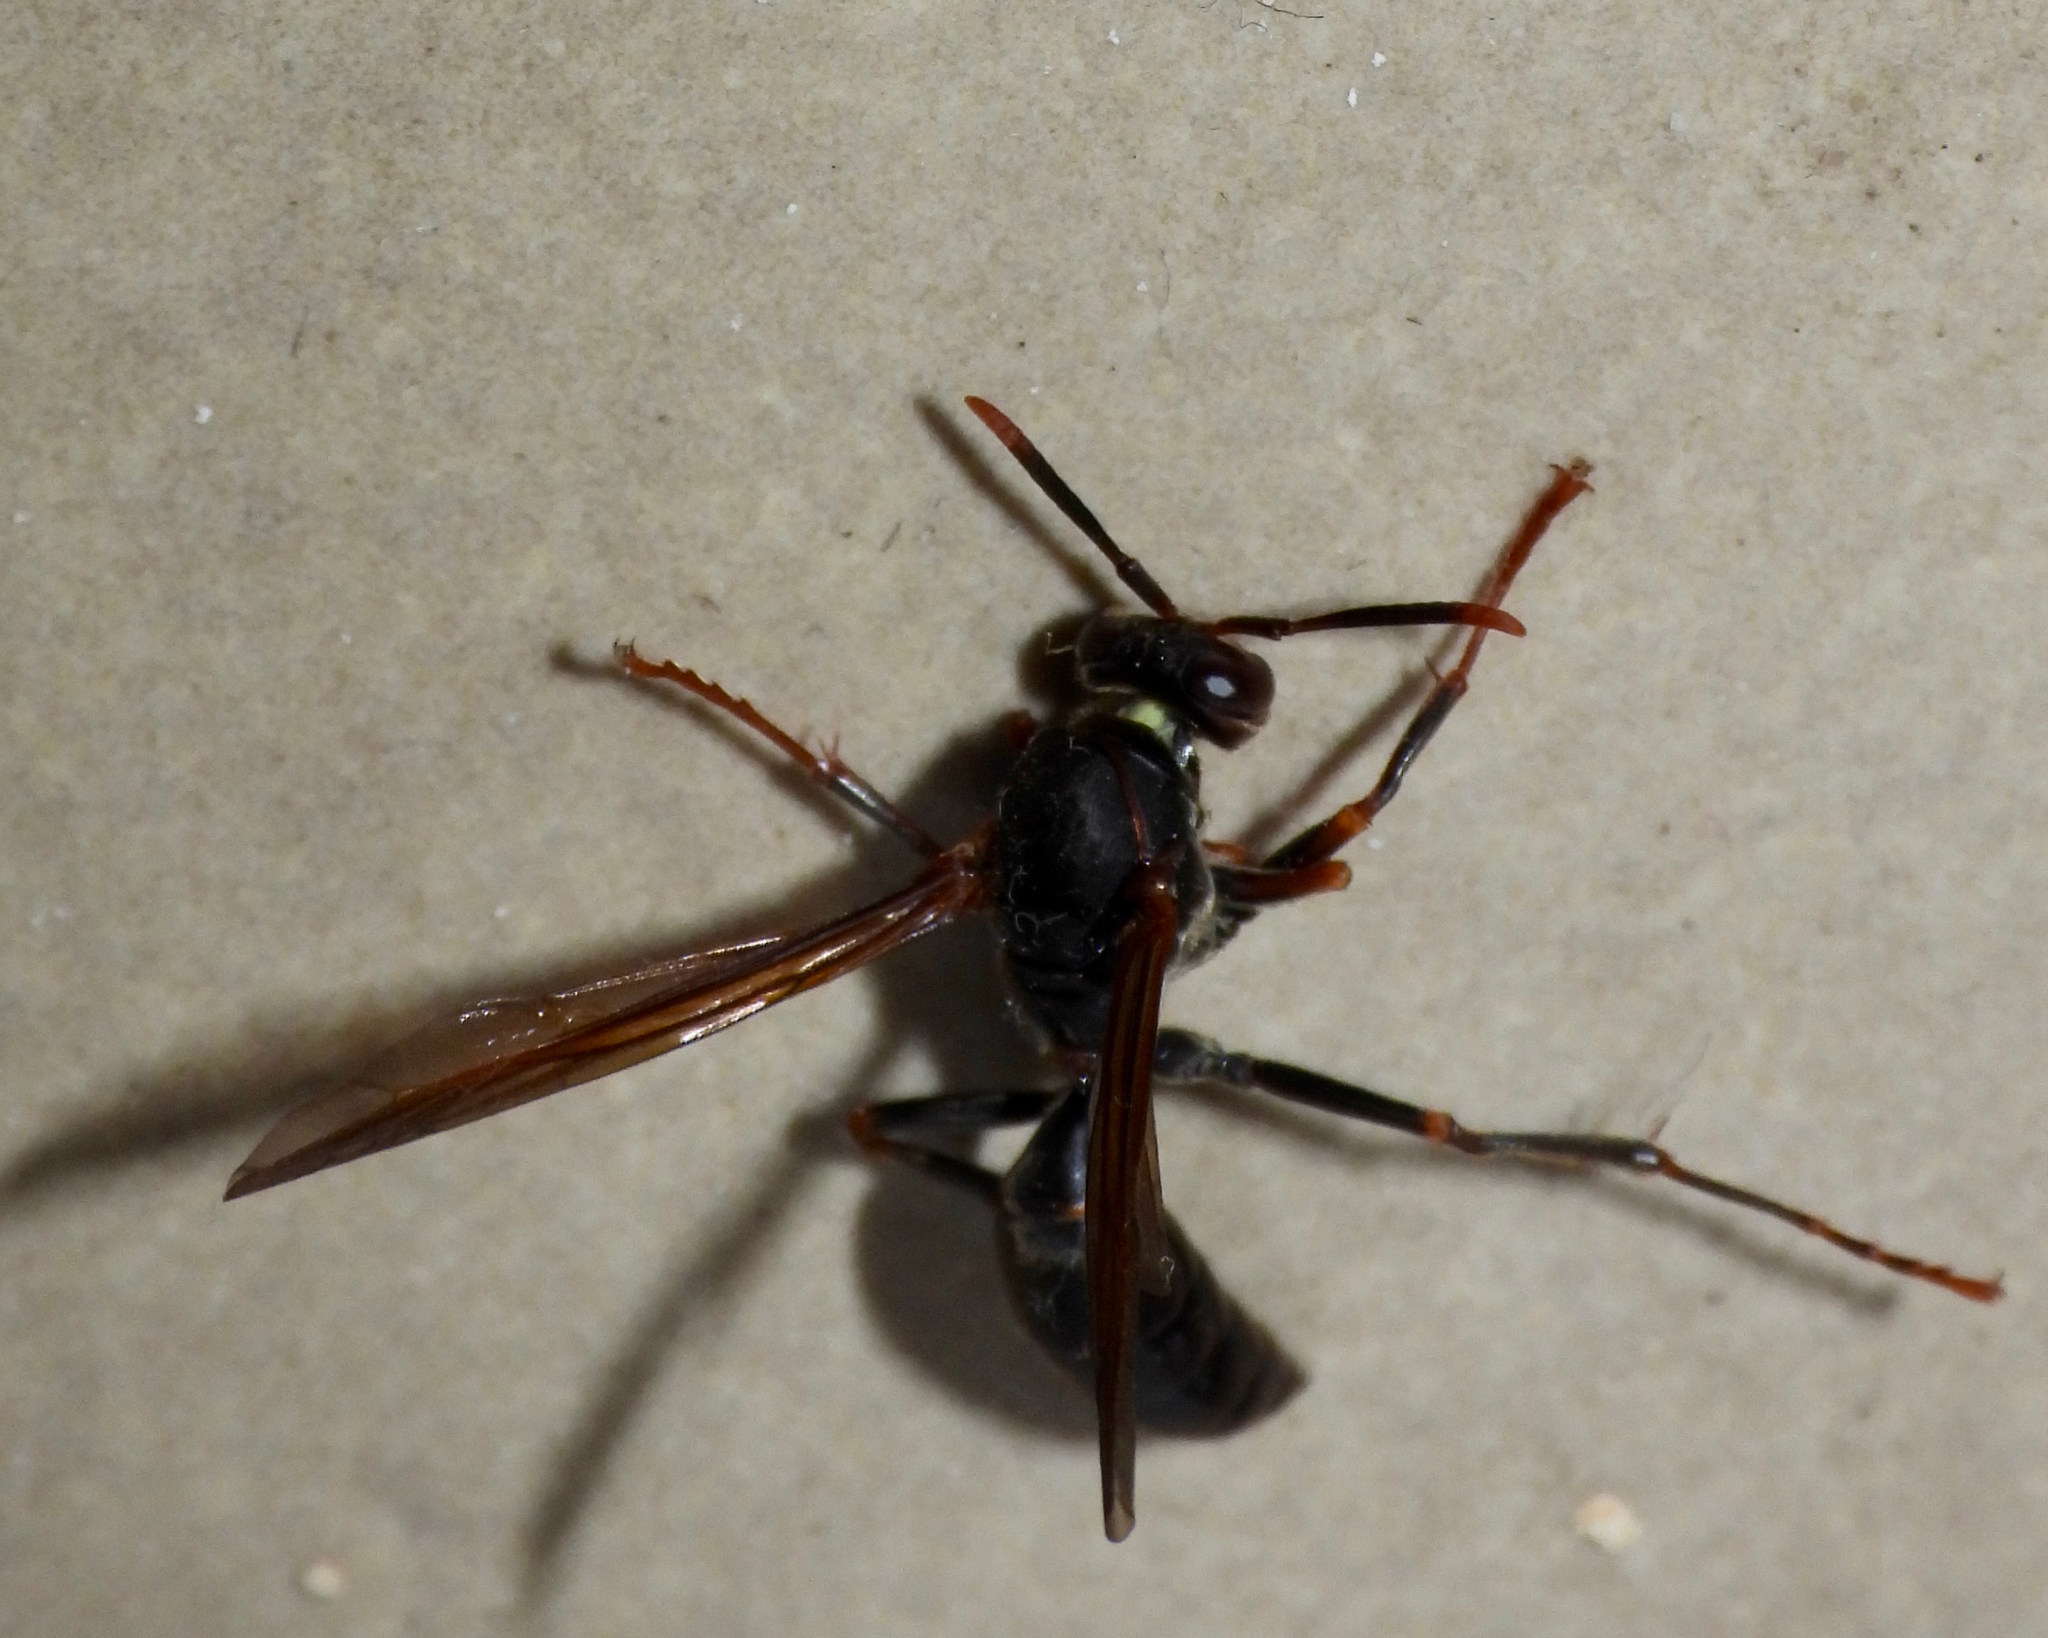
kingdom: Animalia
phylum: Arthropoda
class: Insecta
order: Hymenoptera
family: Eumenidae
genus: Polistes
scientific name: Polistes apicalis
